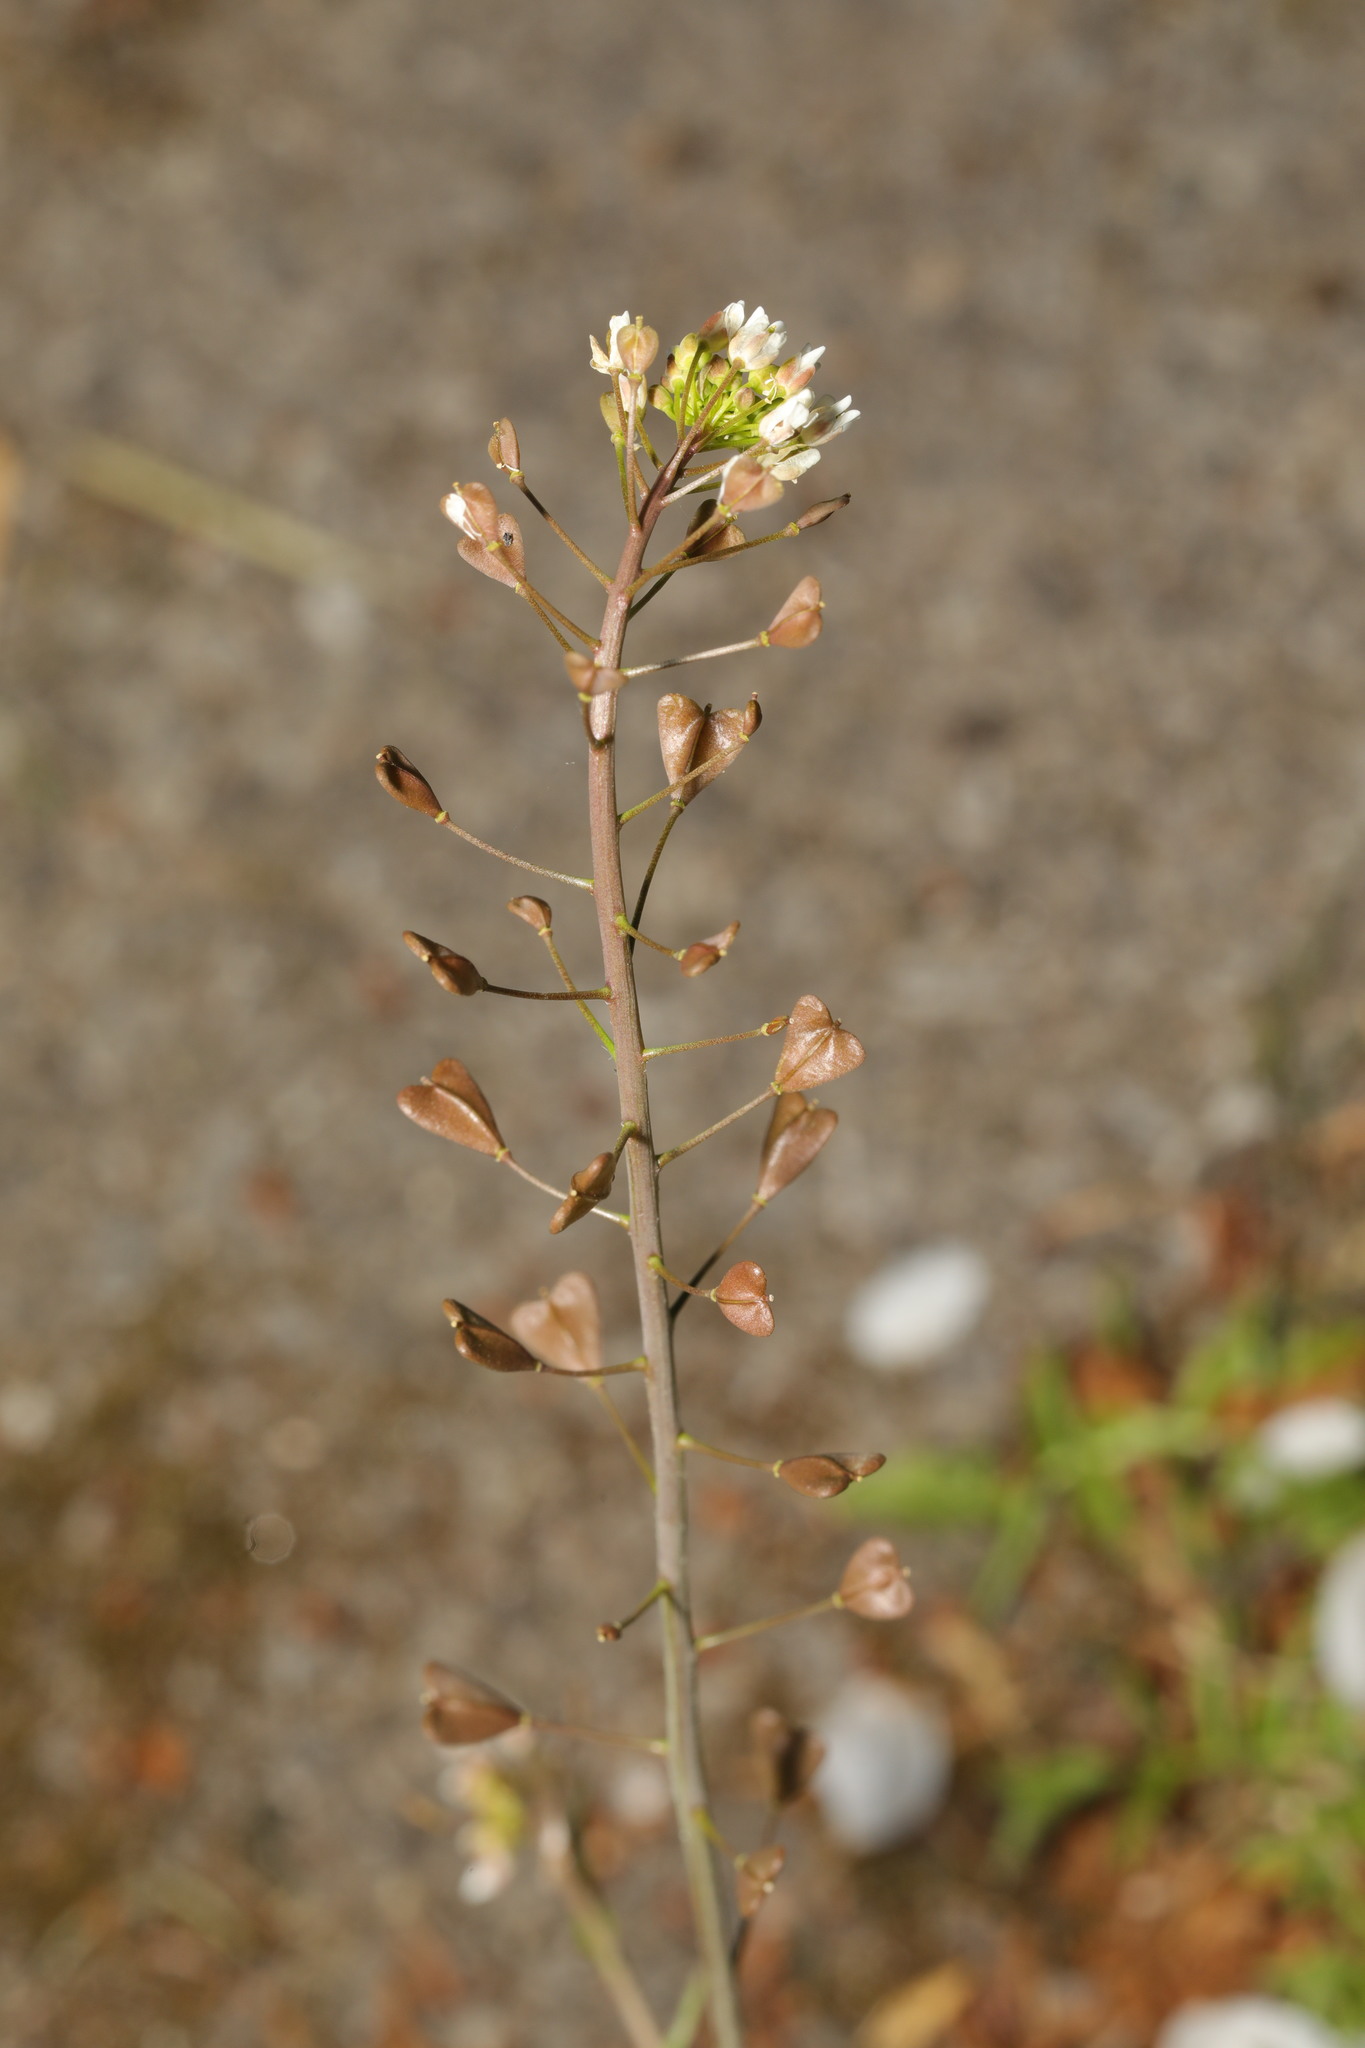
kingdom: Plantae
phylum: Tracheophyta
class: Magnoliopsida
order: Brassicales
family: Brassicaceae
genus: Capsella
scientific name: Capsella bursa-pastoris
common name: Shepherd's purse
